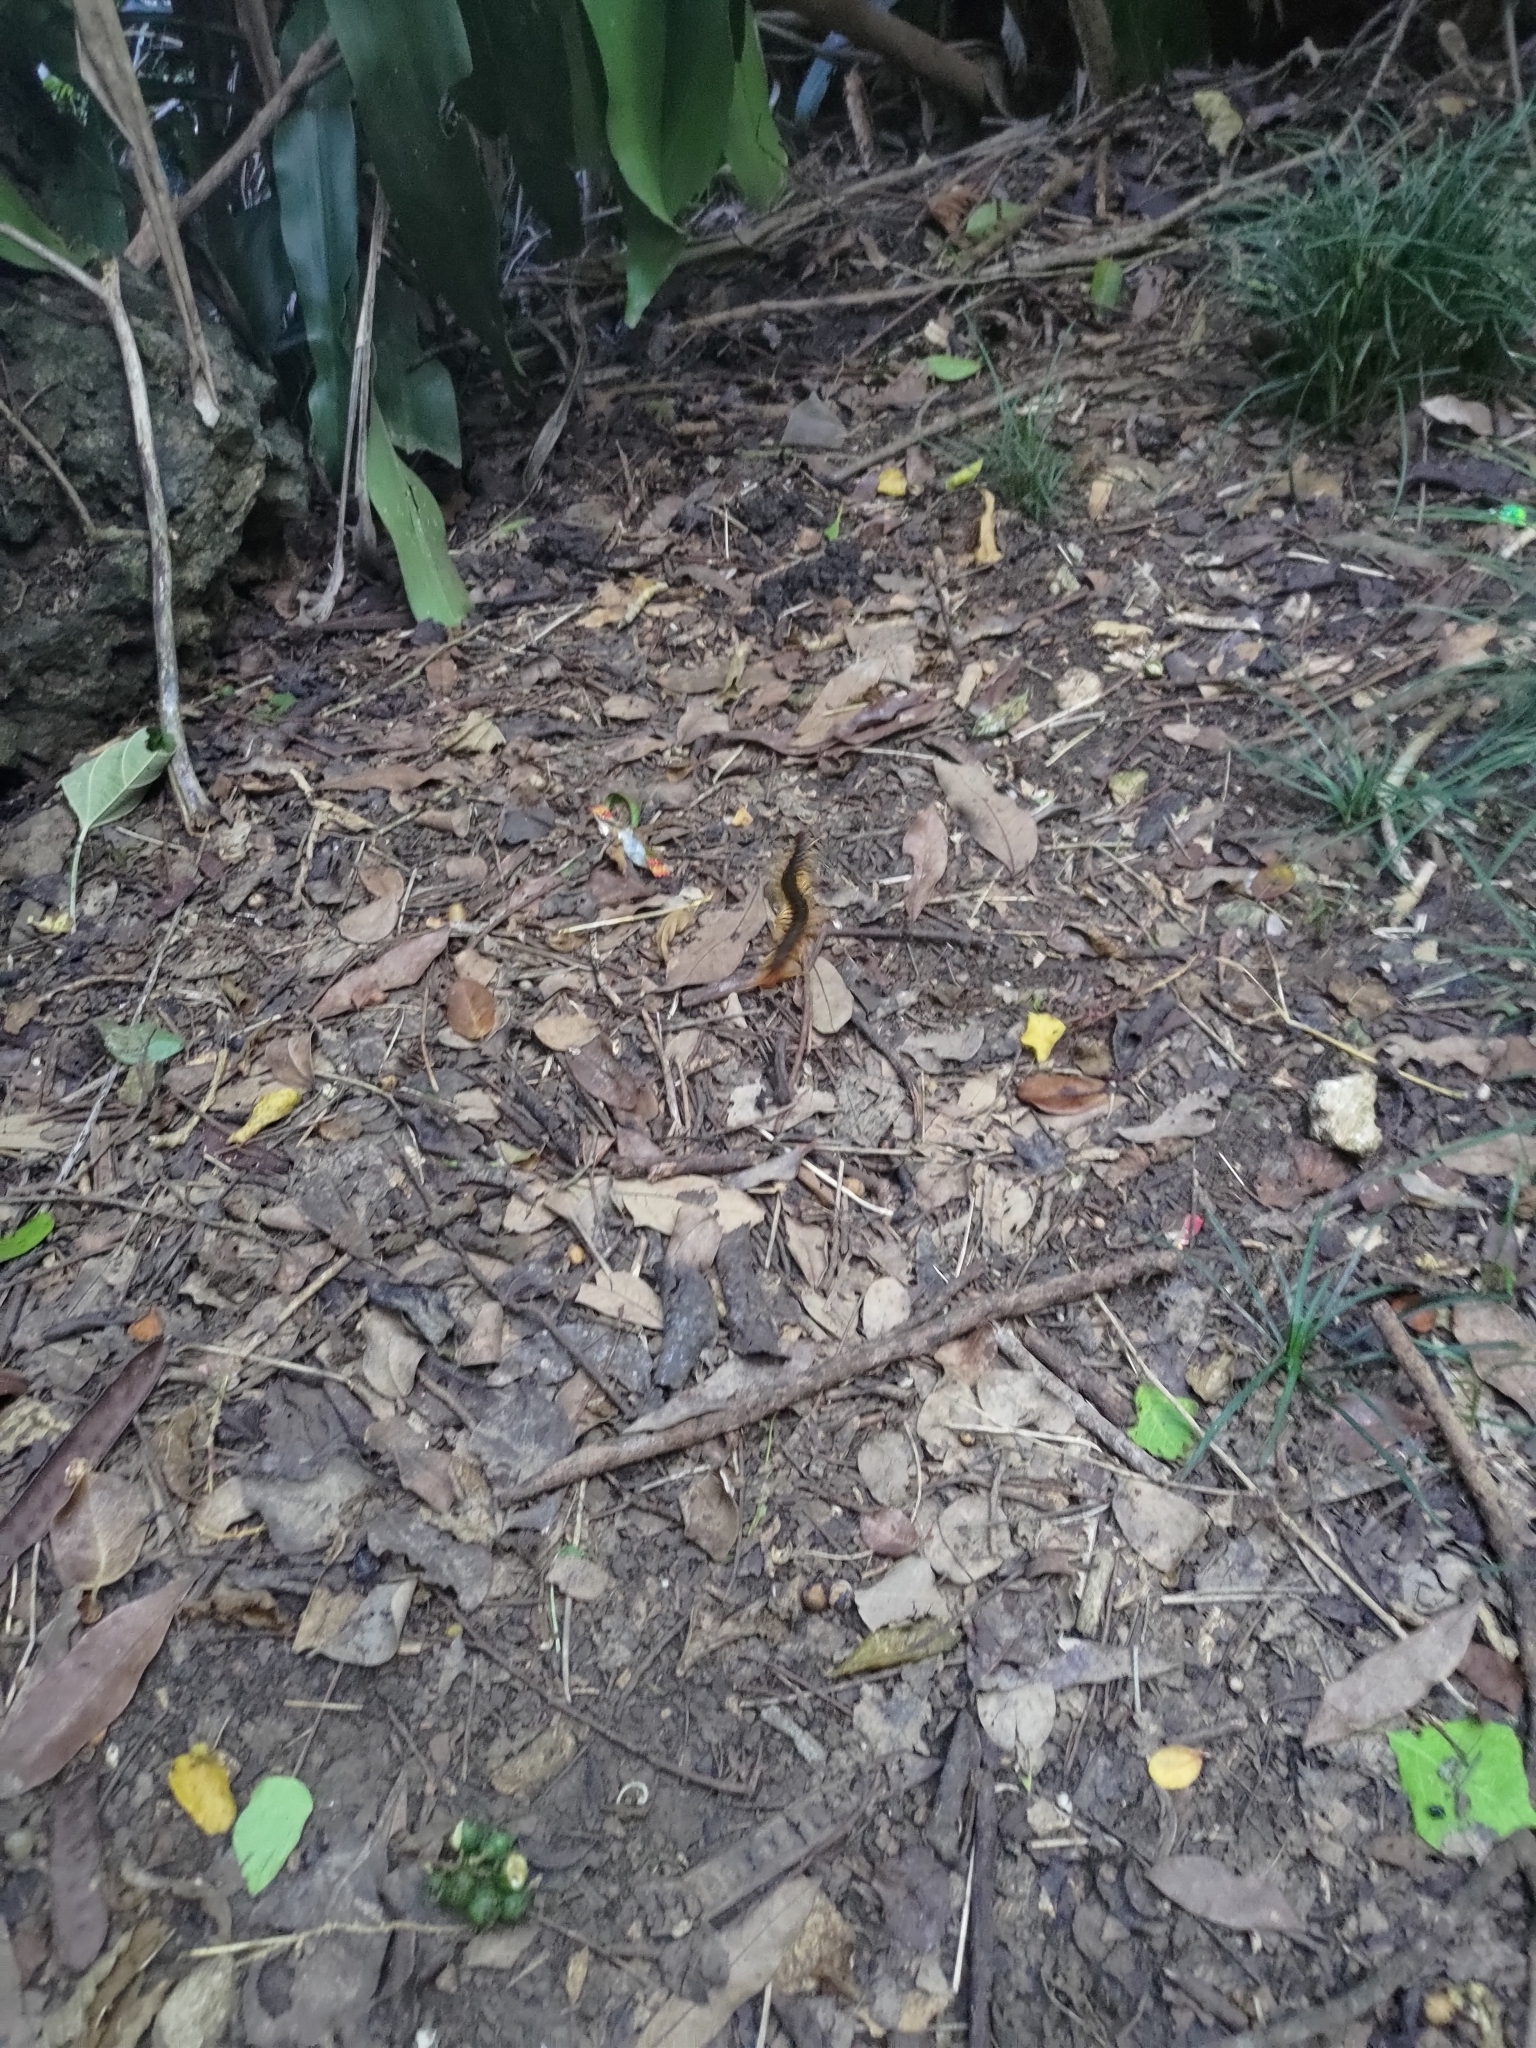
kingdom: Animalia
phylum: Arthropoda
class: Chilopoda
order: Scolopendromorpha
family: Scolopendridae
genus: Scolopendra
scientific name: Scolopendra mutilans
